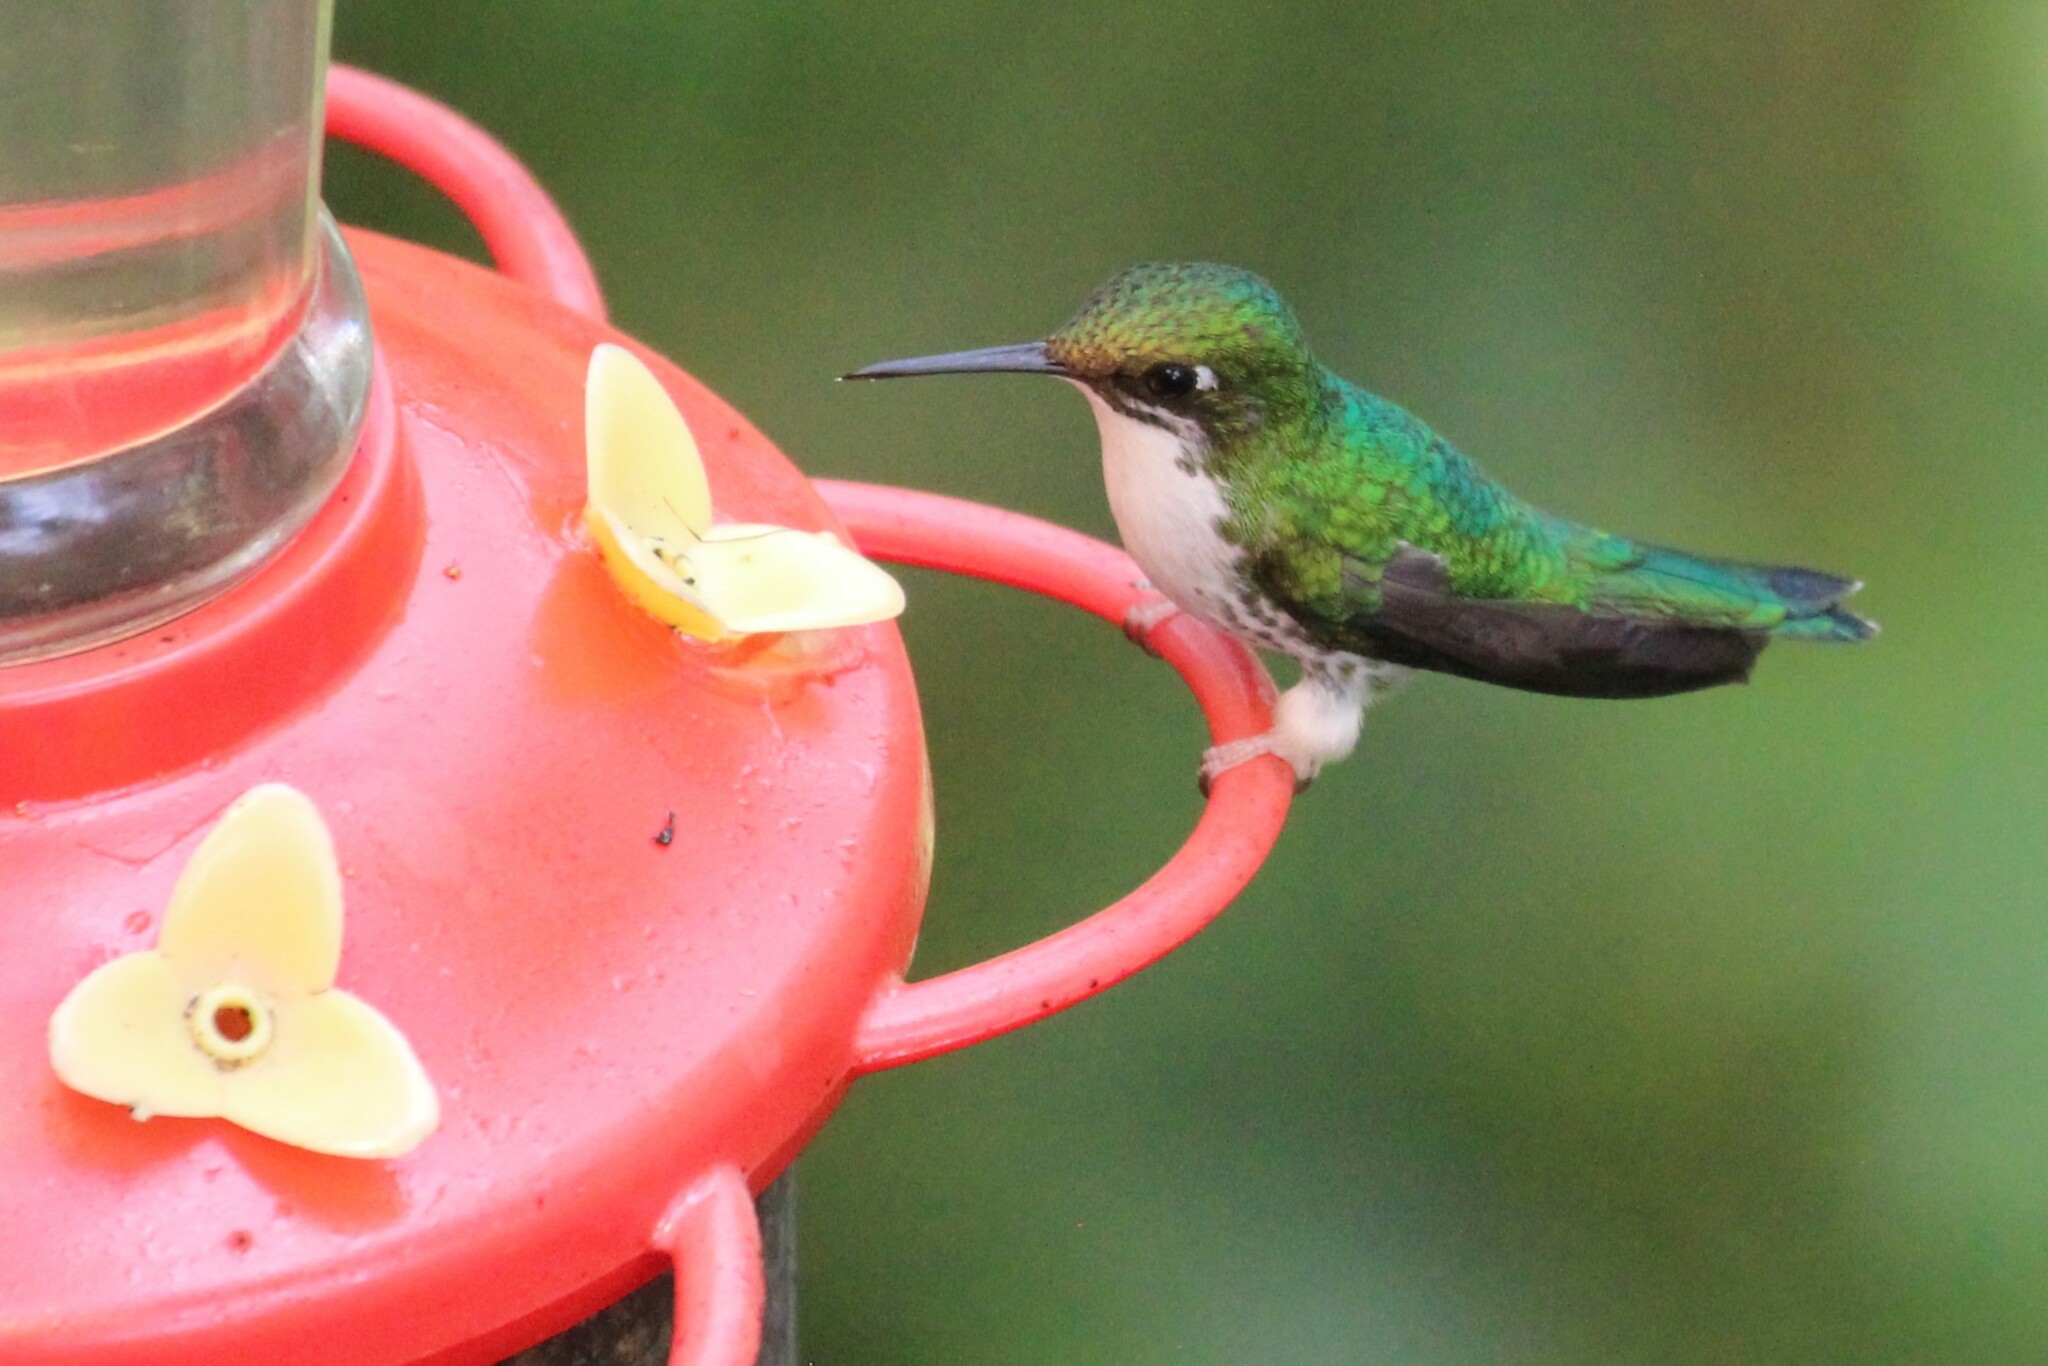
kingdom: Animalia
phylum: Chordata
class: Aves
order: Apodiformes
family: Trochilidae
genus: Ocreatus
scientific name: Ocreatus underwoodii
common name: Booted racket-tail
